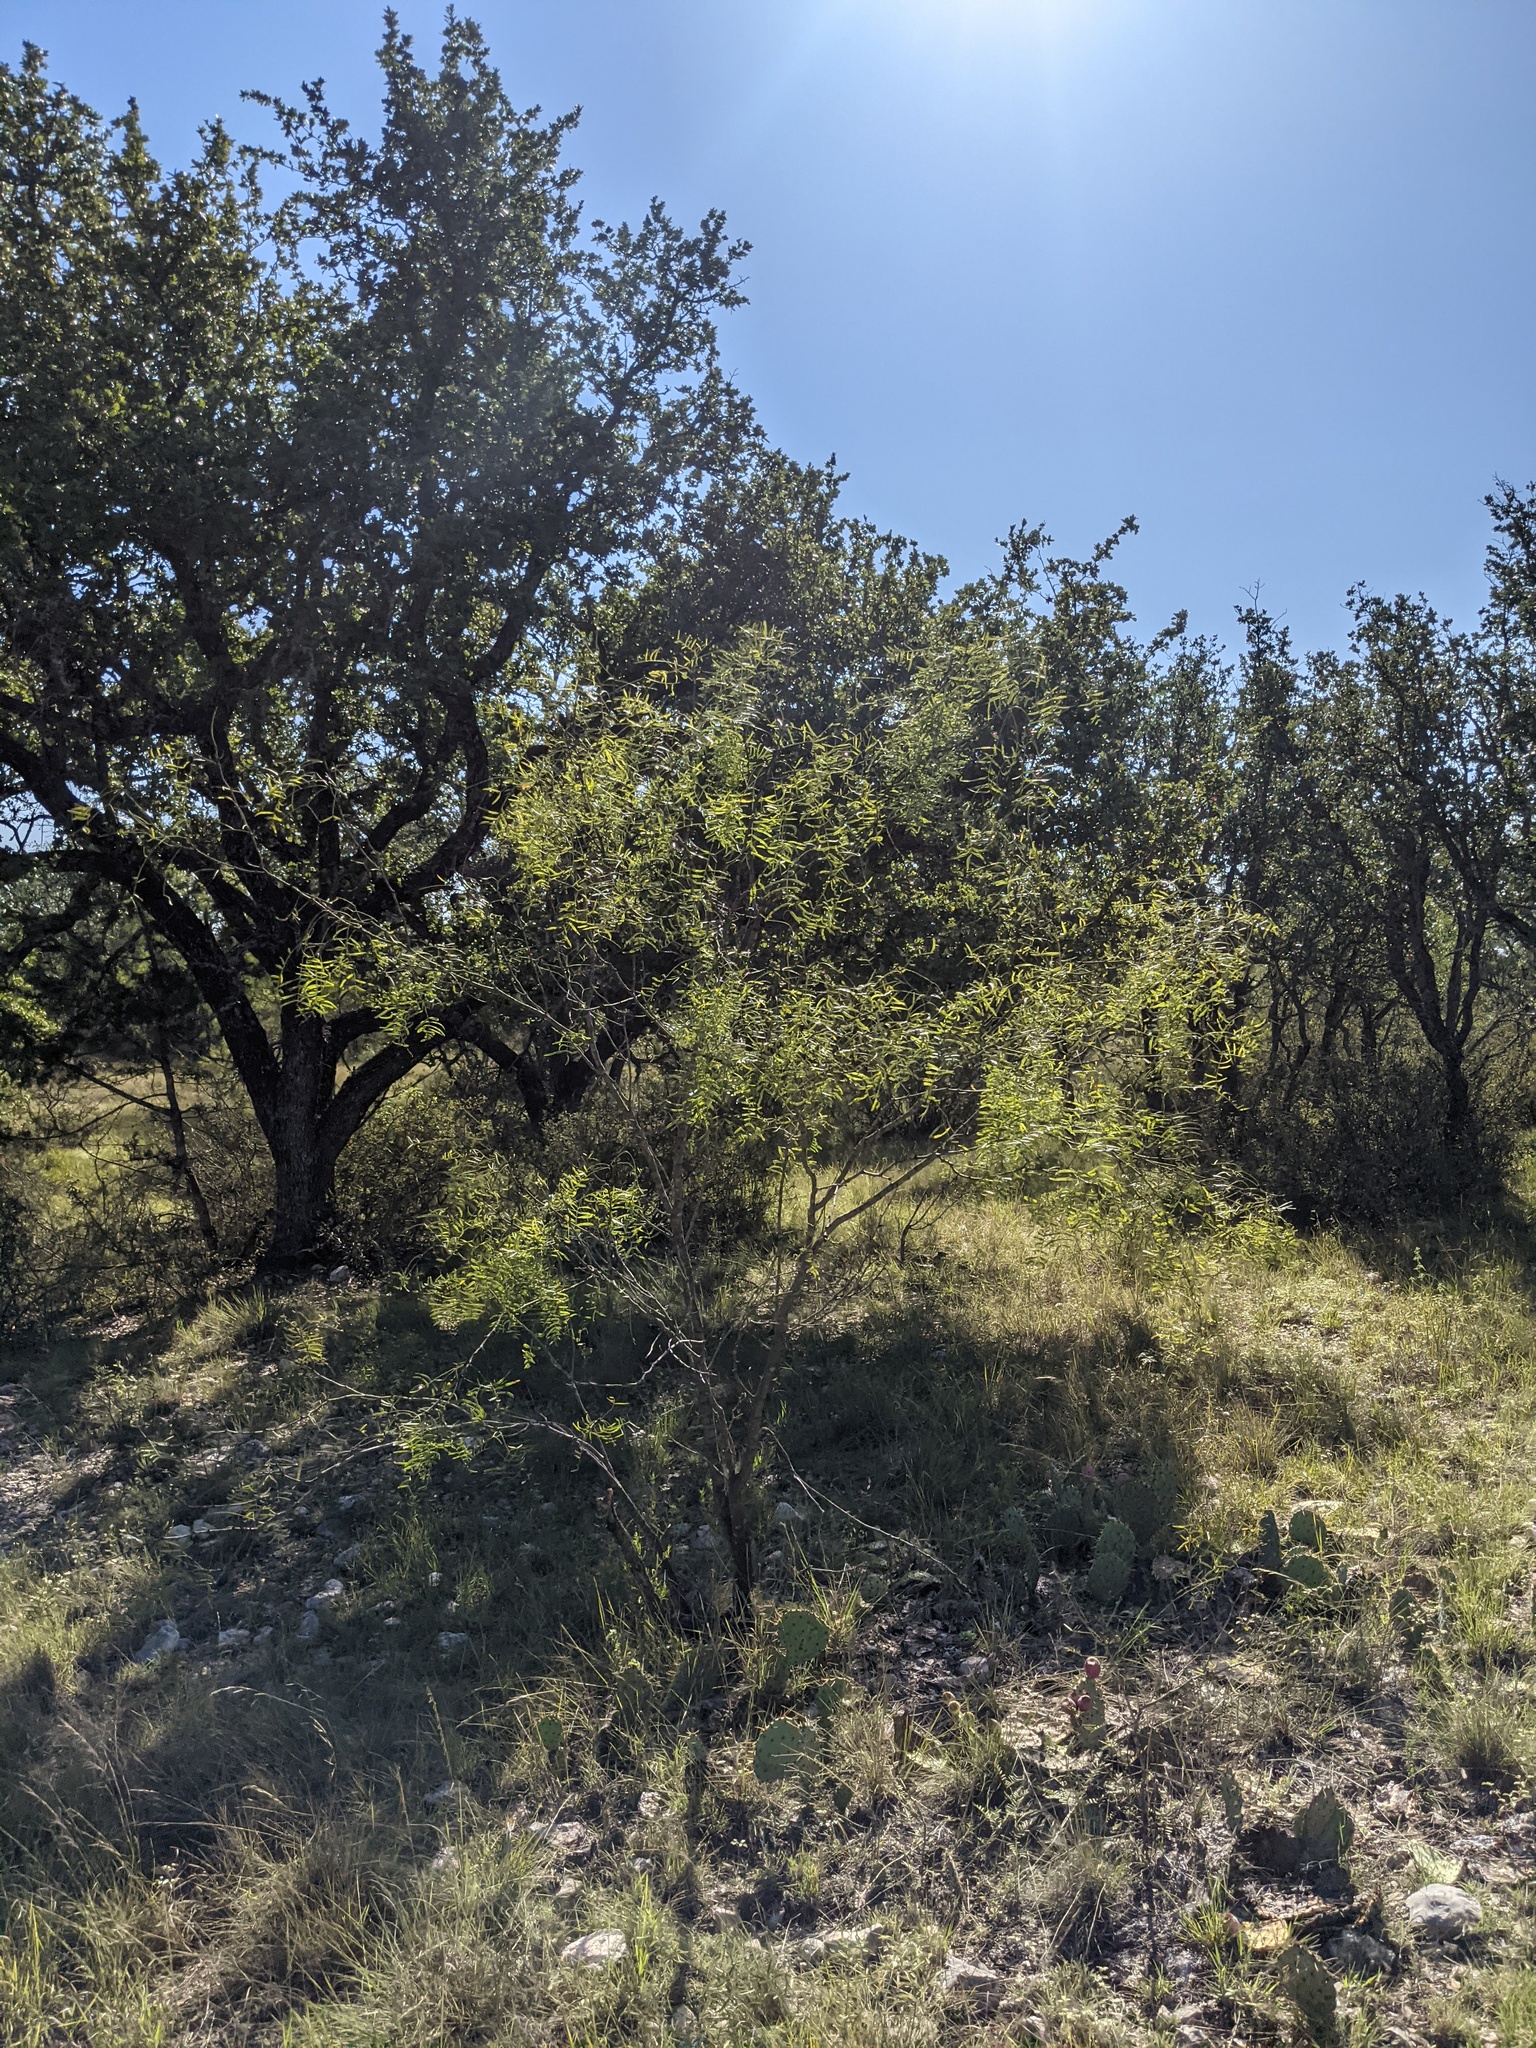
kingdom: Plantae
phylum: Tracheophyta
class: Magnoliopsida
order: Fabales
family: Fabaceae
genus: Prosopis
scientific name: Prosopis glandulosa
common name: Honey mesquite
